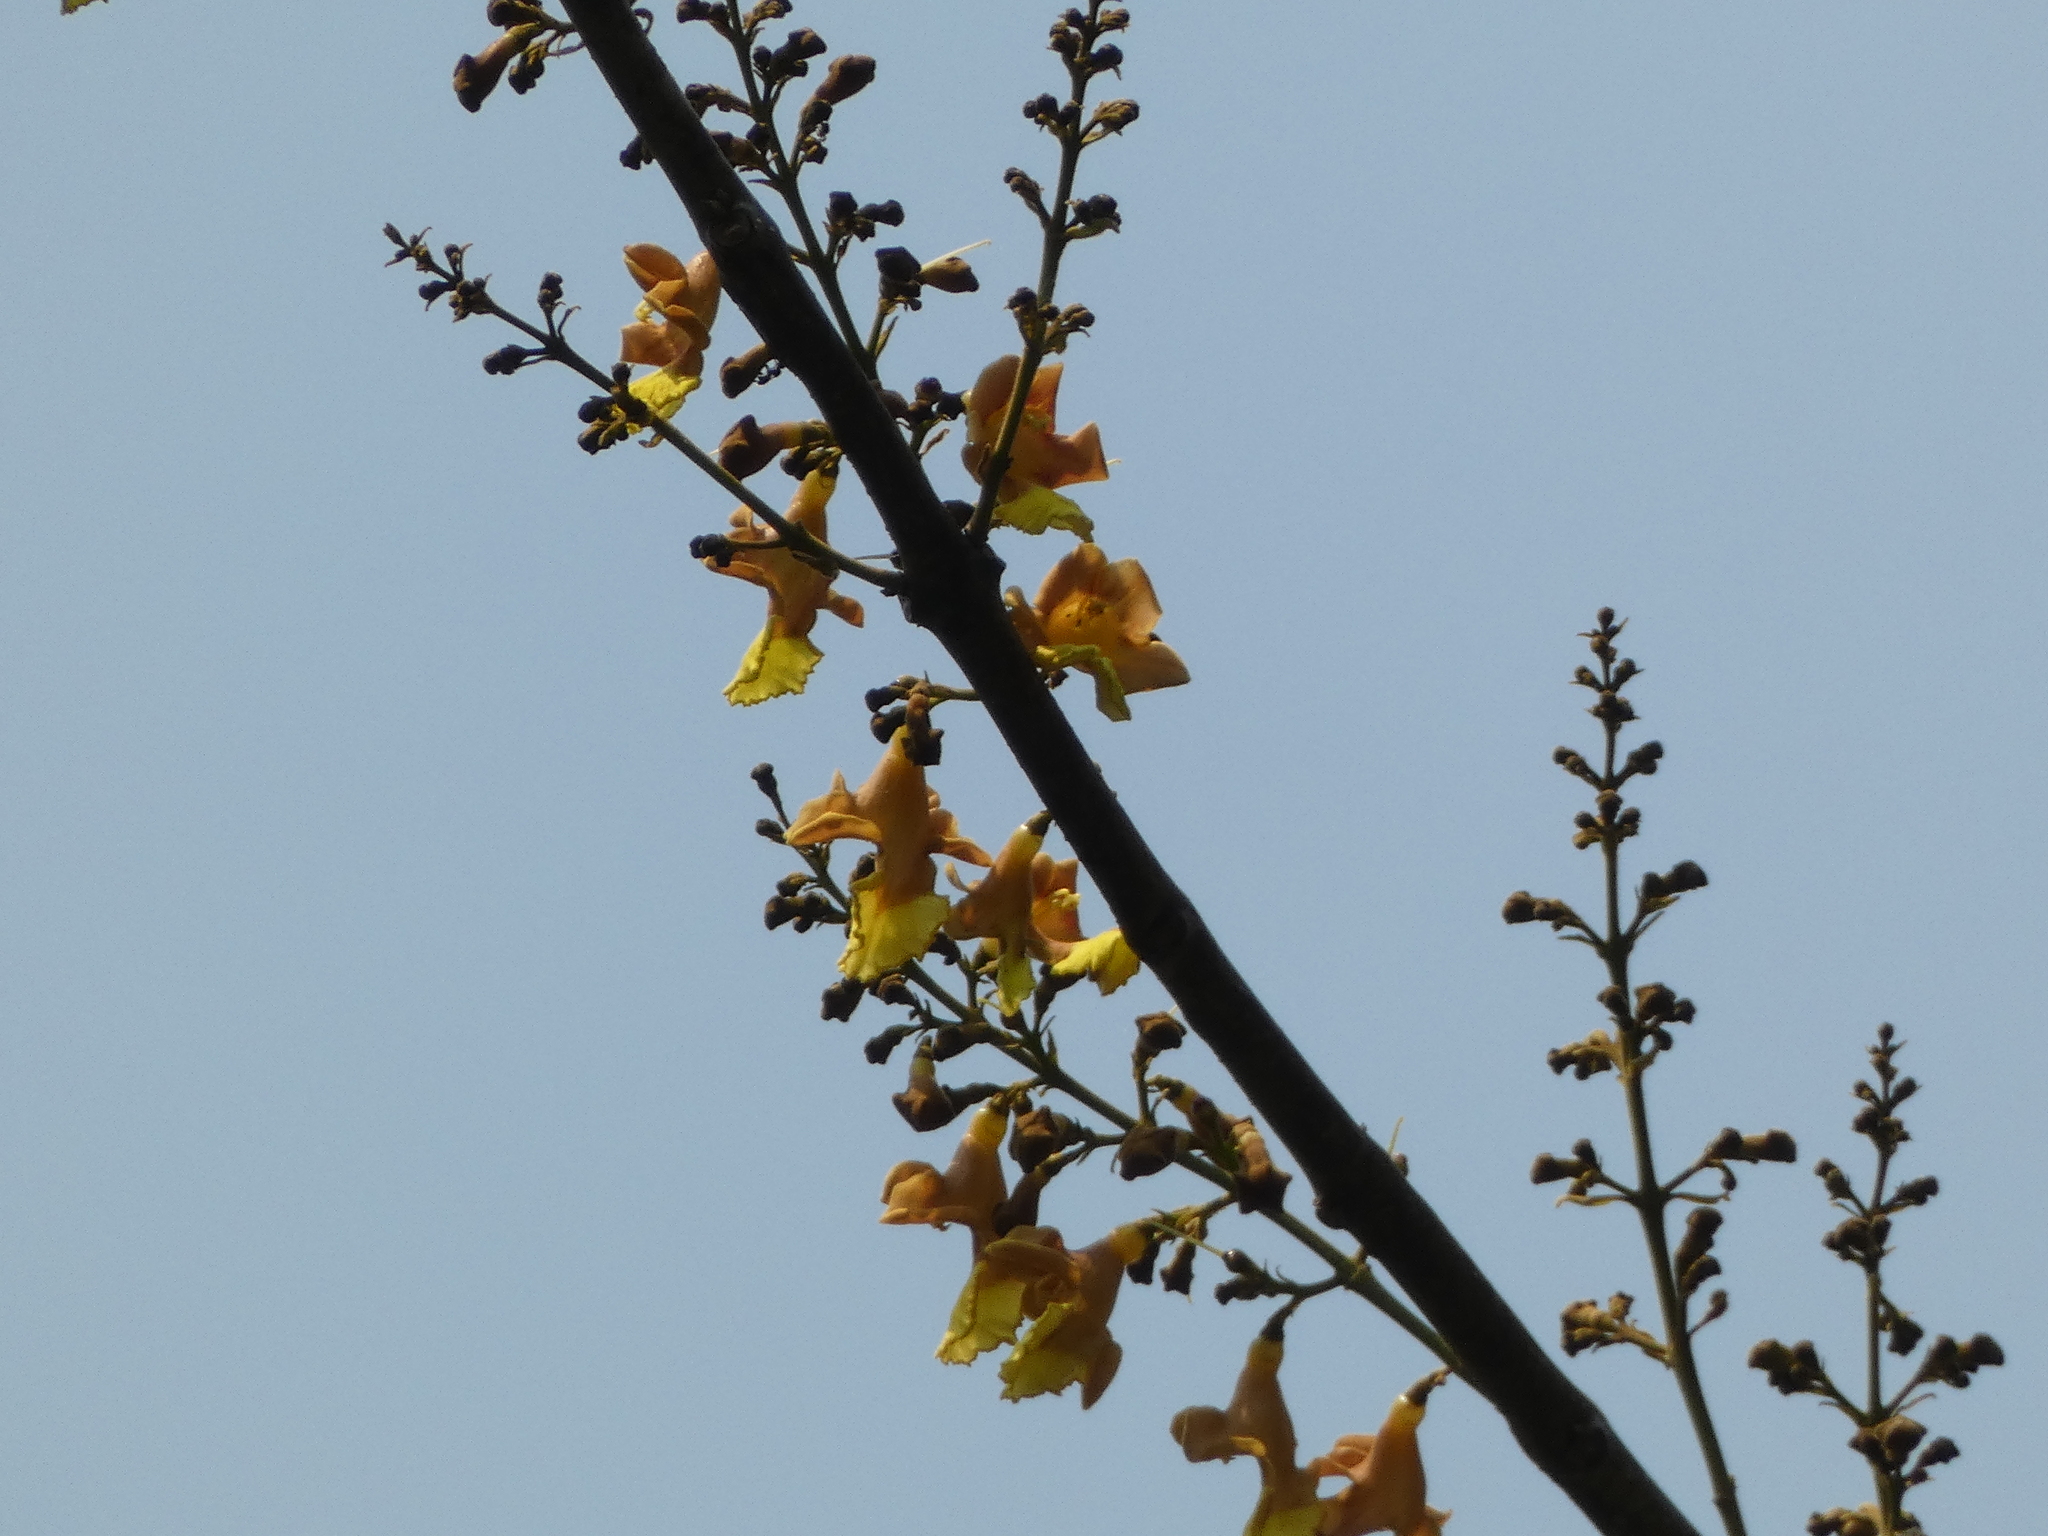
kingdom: Plantae
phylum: Tracheophyta
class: Magnoliopsida
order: Lamiales
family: Lamiaceae
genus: Gmelina
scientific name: Gmelina arborea
